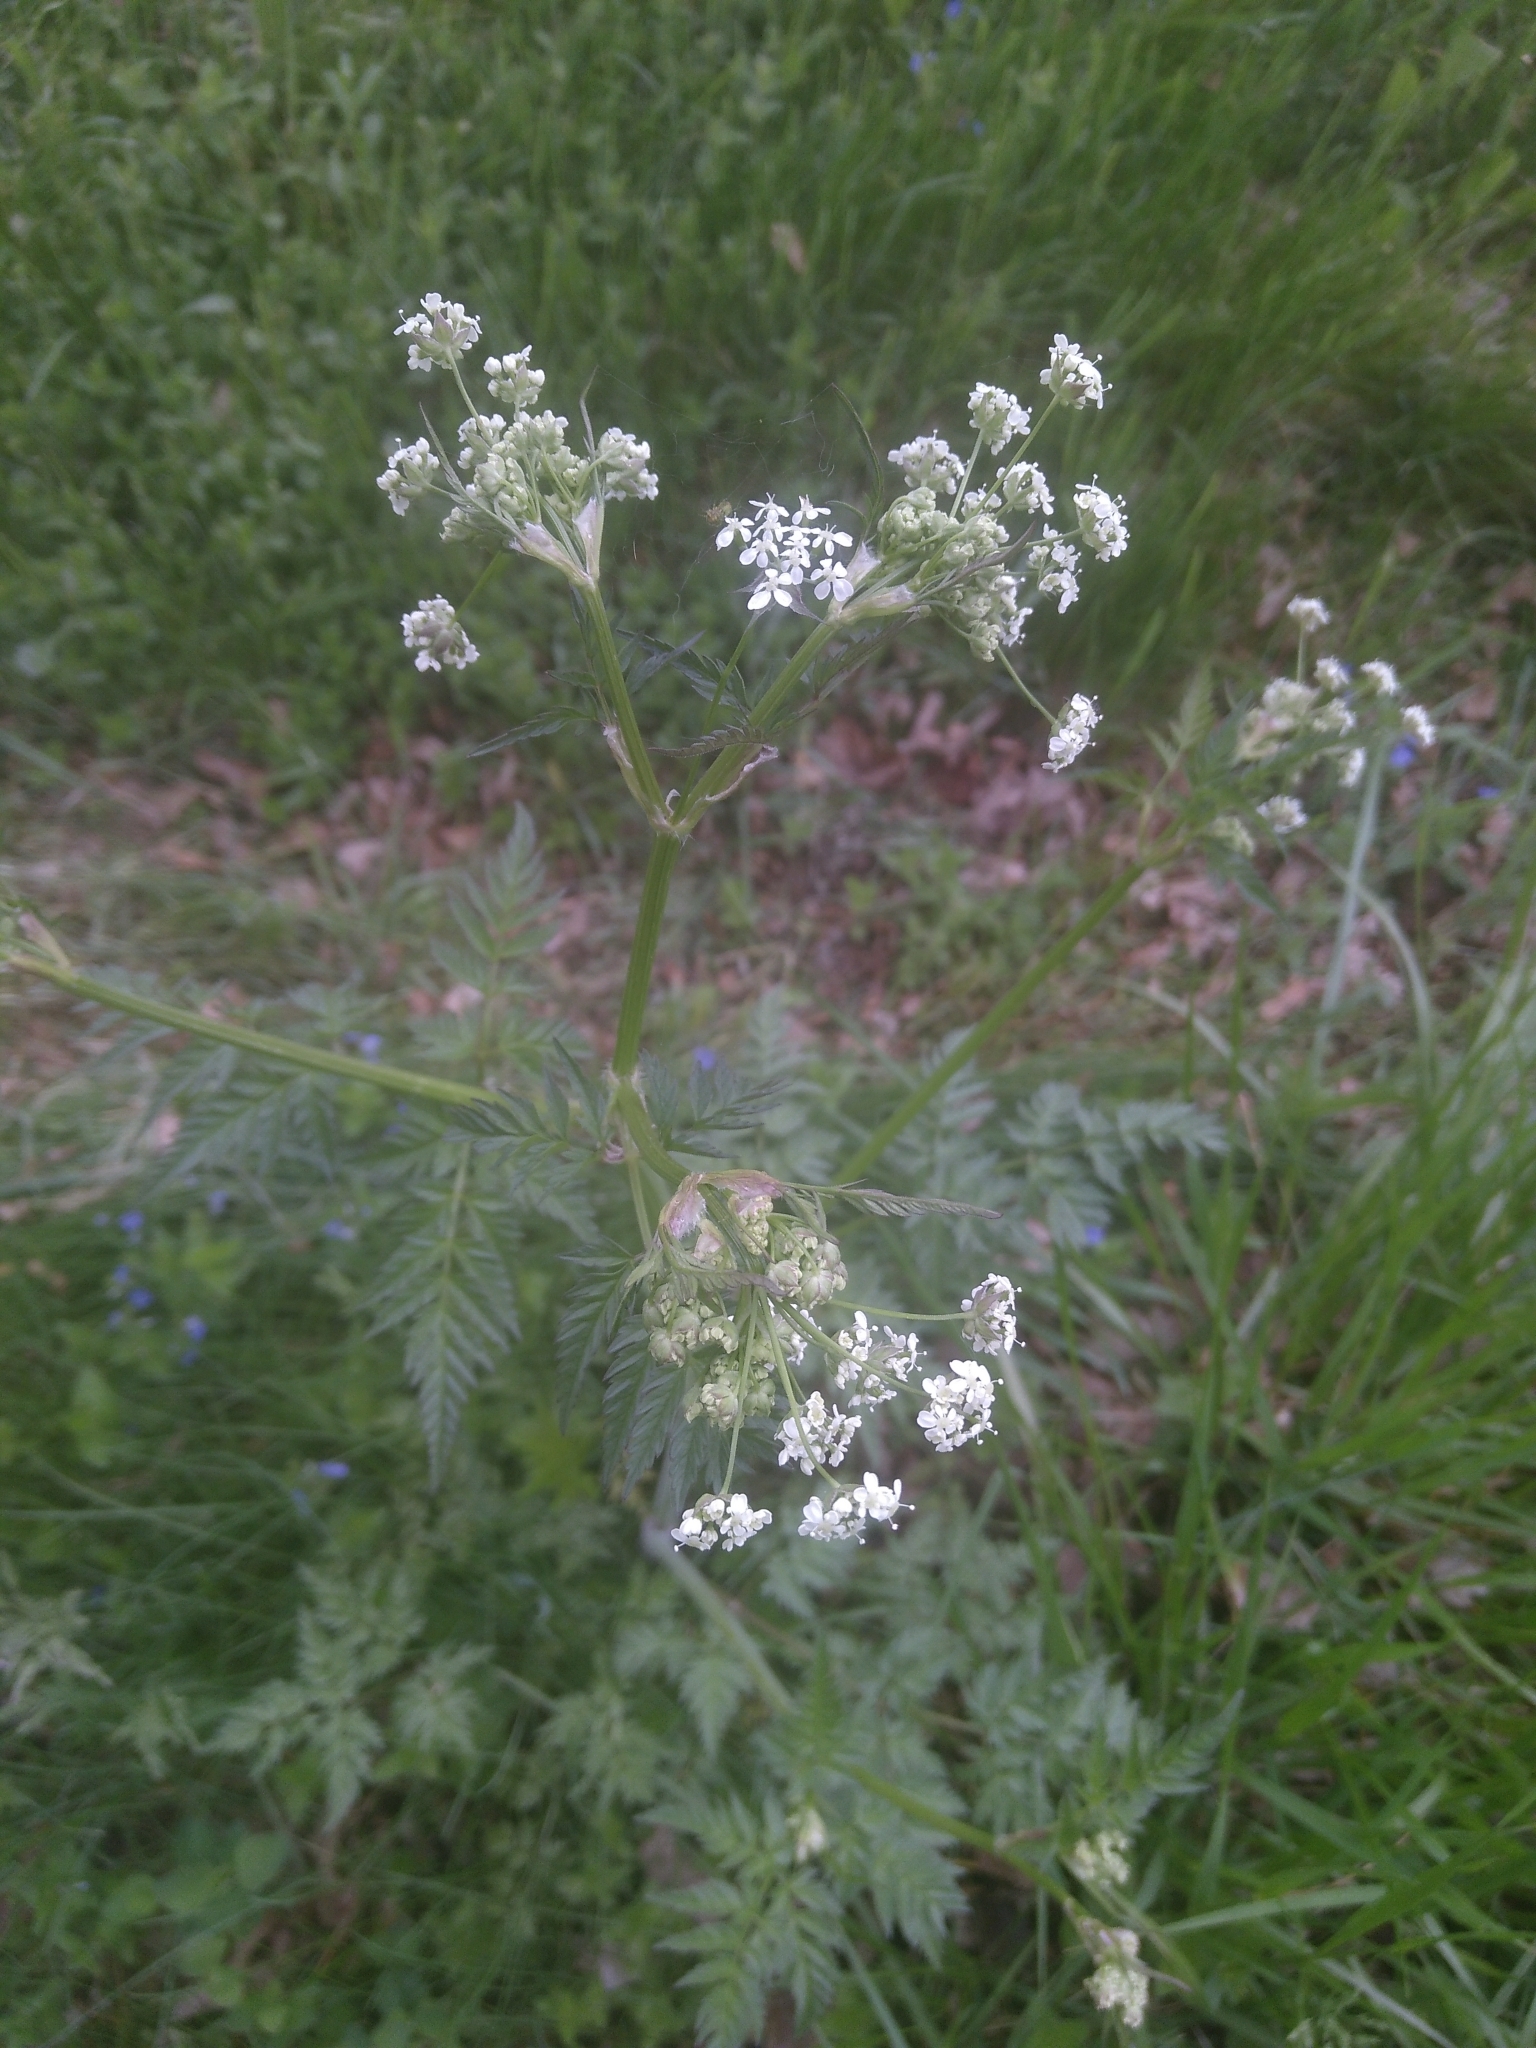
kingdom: Plantae
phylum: Tracheophyta
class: Magnoliopsida
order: Apiales
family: Apiaceae
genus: Anthriscus
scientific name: Anthriscus sylvestris
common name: Cow parsley
